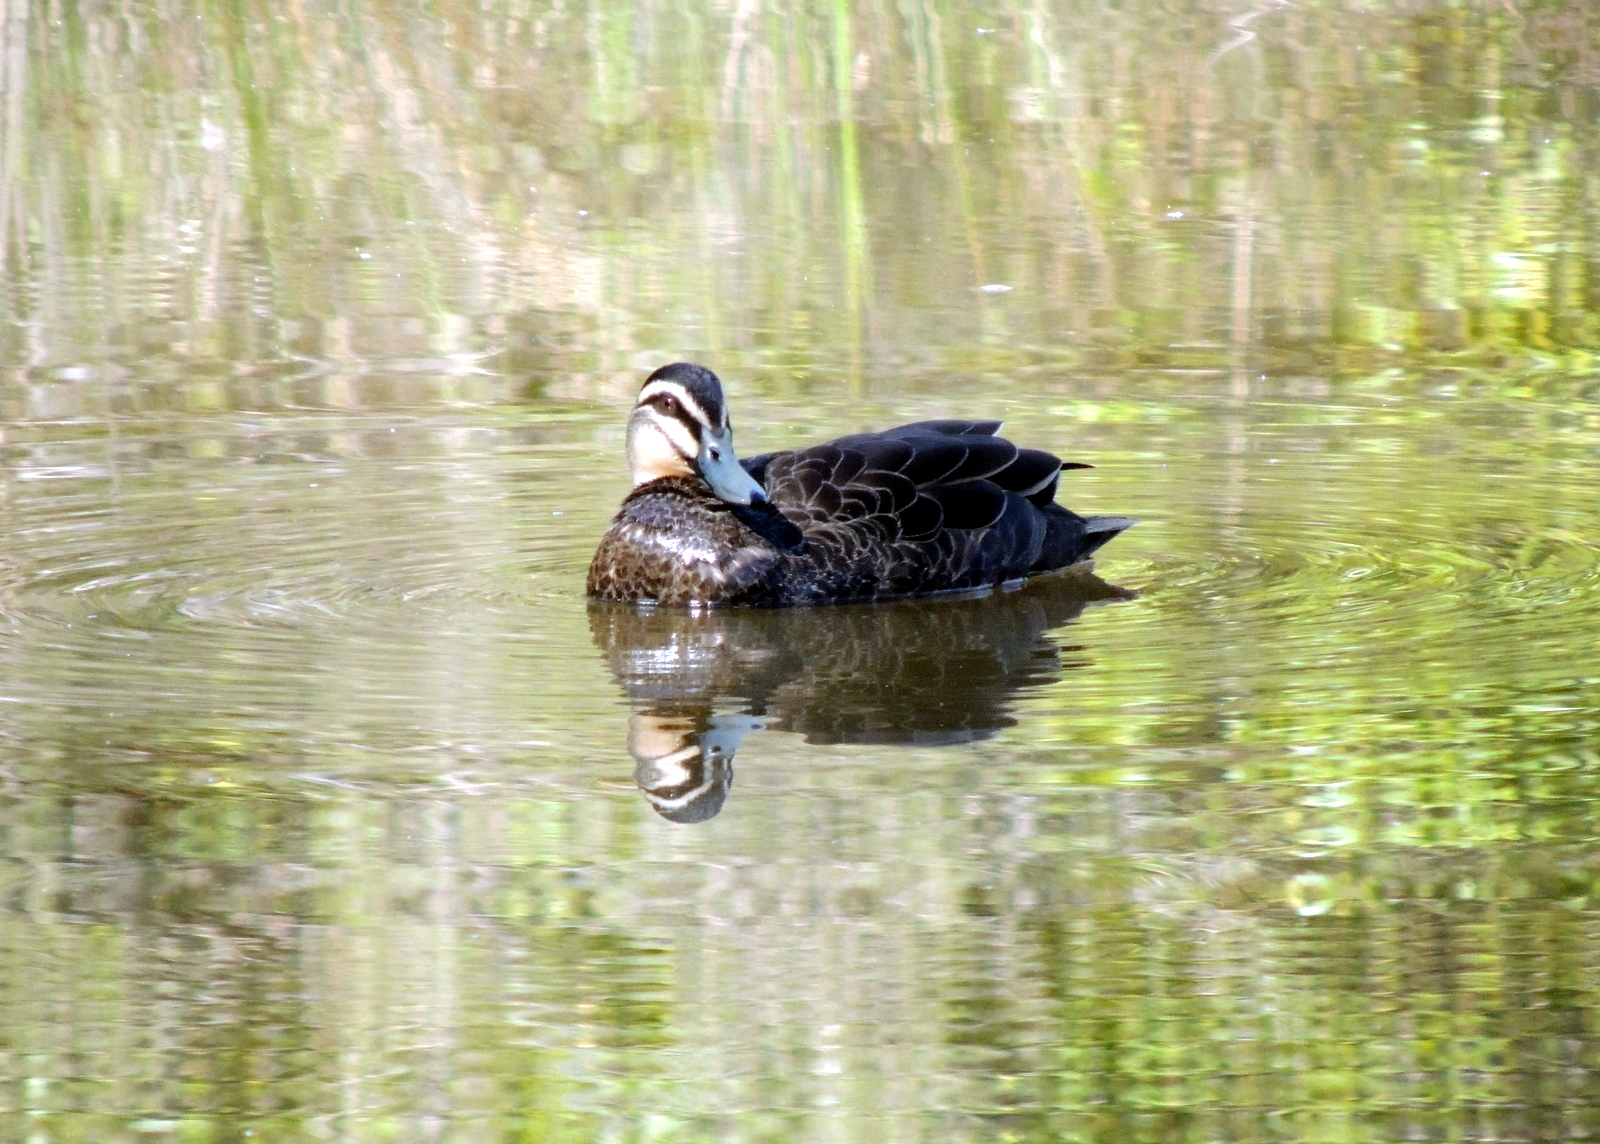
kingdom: Animalia
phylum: Chordata
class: Aves
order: Anseriformes
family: Anatidae
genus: Anas
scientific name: Anas superciliosa
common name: Pacific black duck
